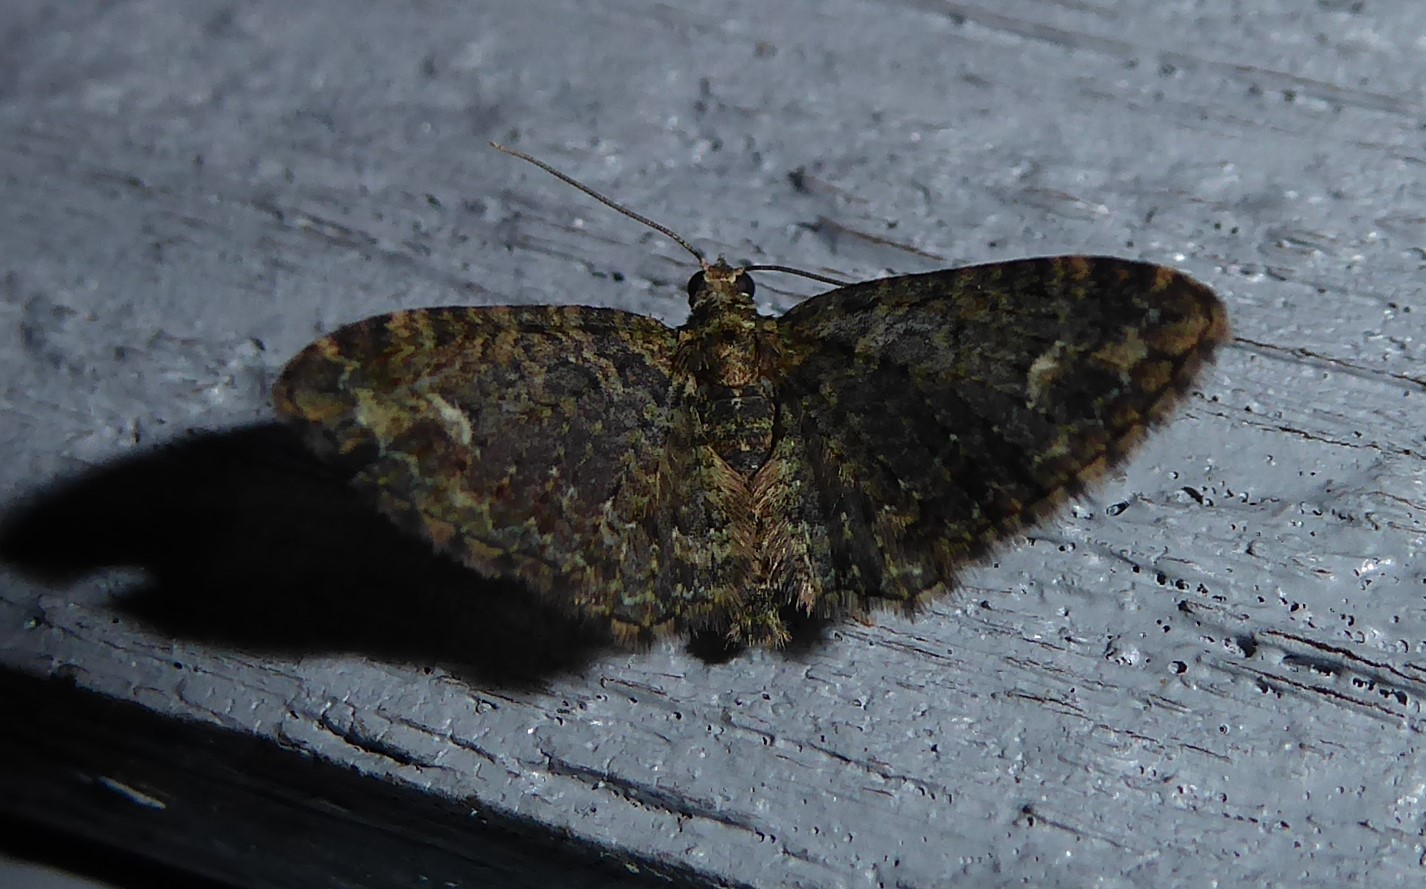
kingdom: Animalia
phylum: Arthropoda
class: Insecta
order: Lepidoptera
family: Geometridae
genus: Pasiphilodes
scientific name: Pasiphilodes testulata
